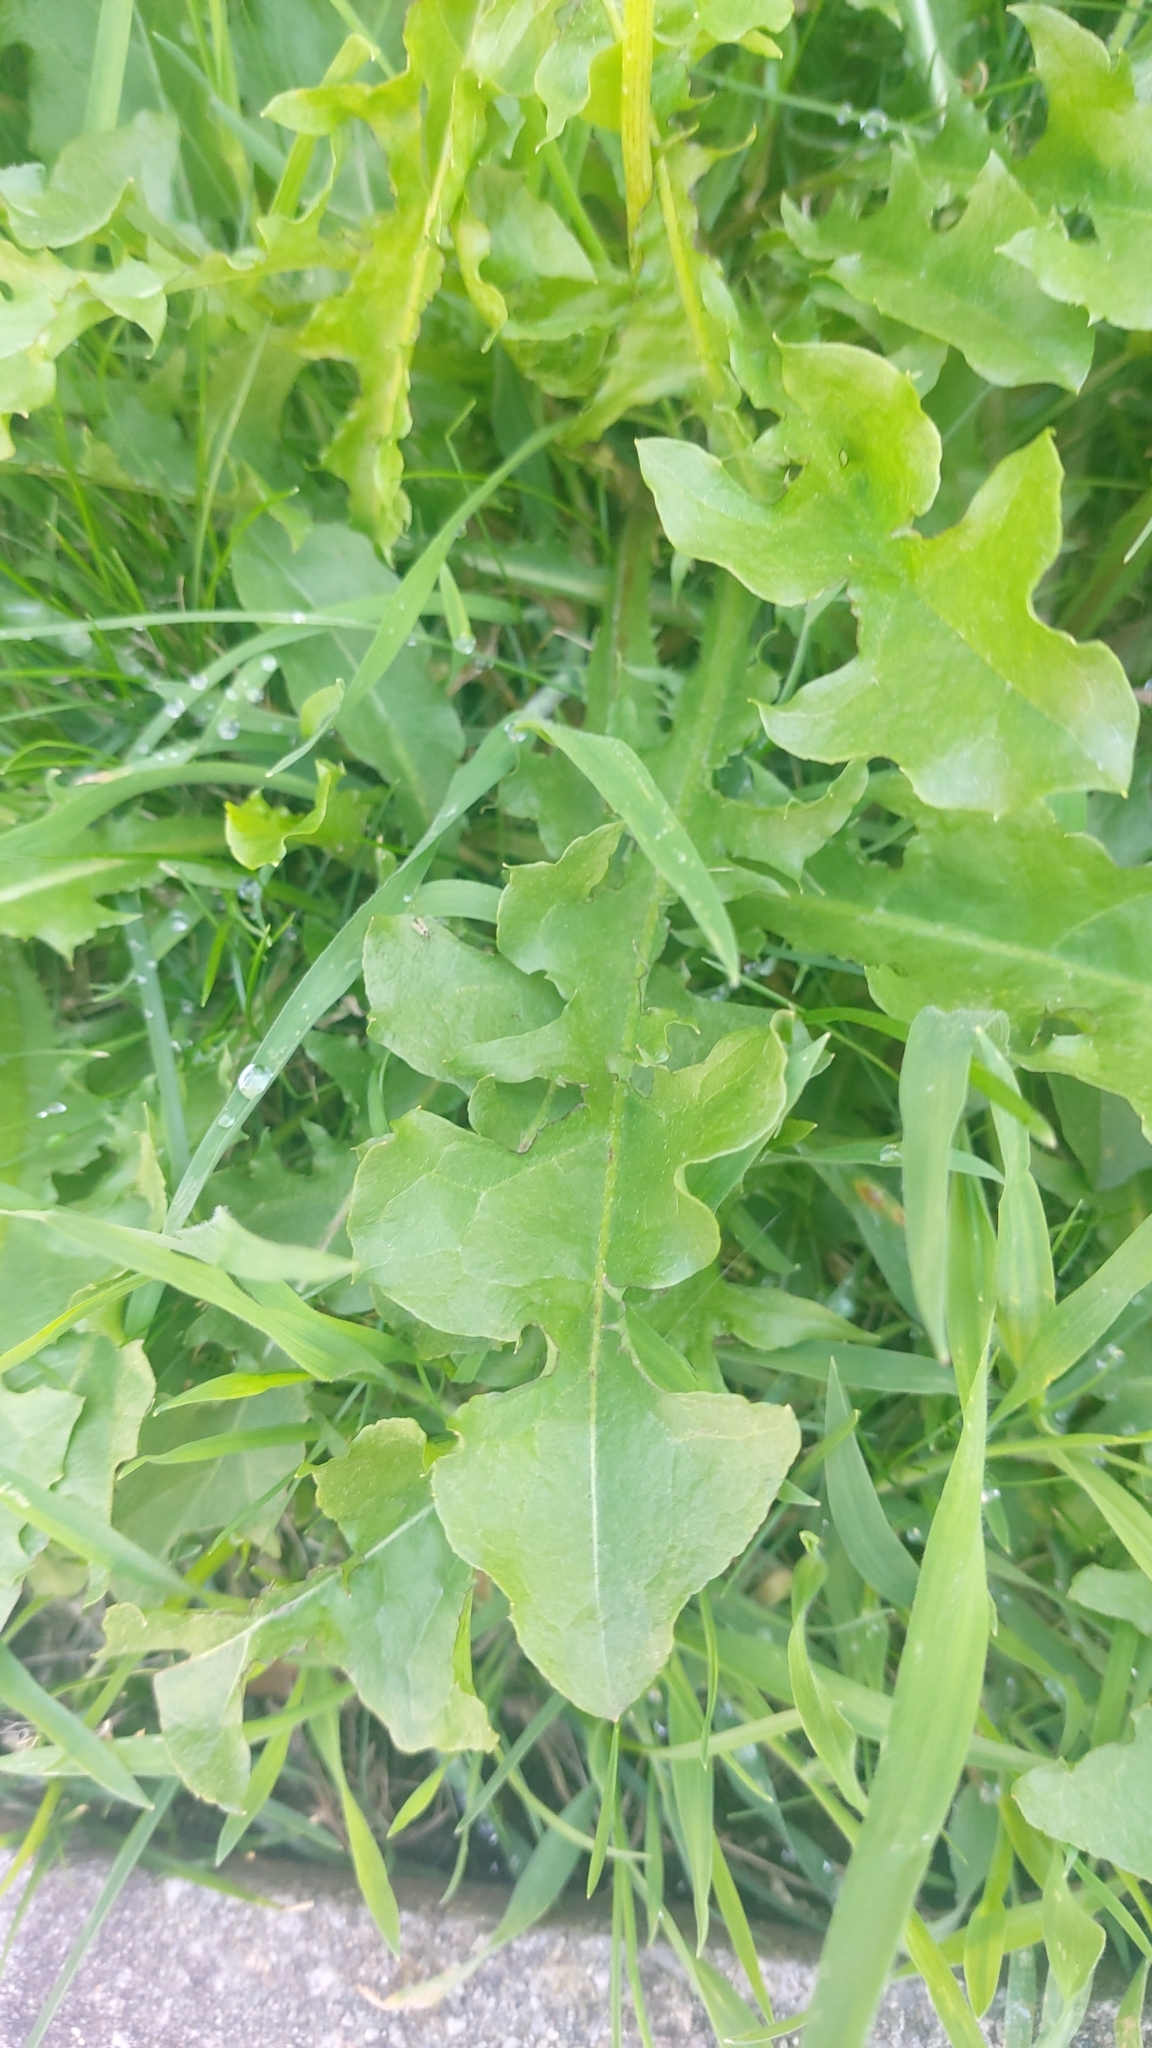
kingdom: Plantae
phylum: Tracheophyta
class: Magnoliopsida
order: Asterales
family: Asteraceae
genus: Taraxacum
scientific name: Taraxacum officinale
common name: Common dandelion
